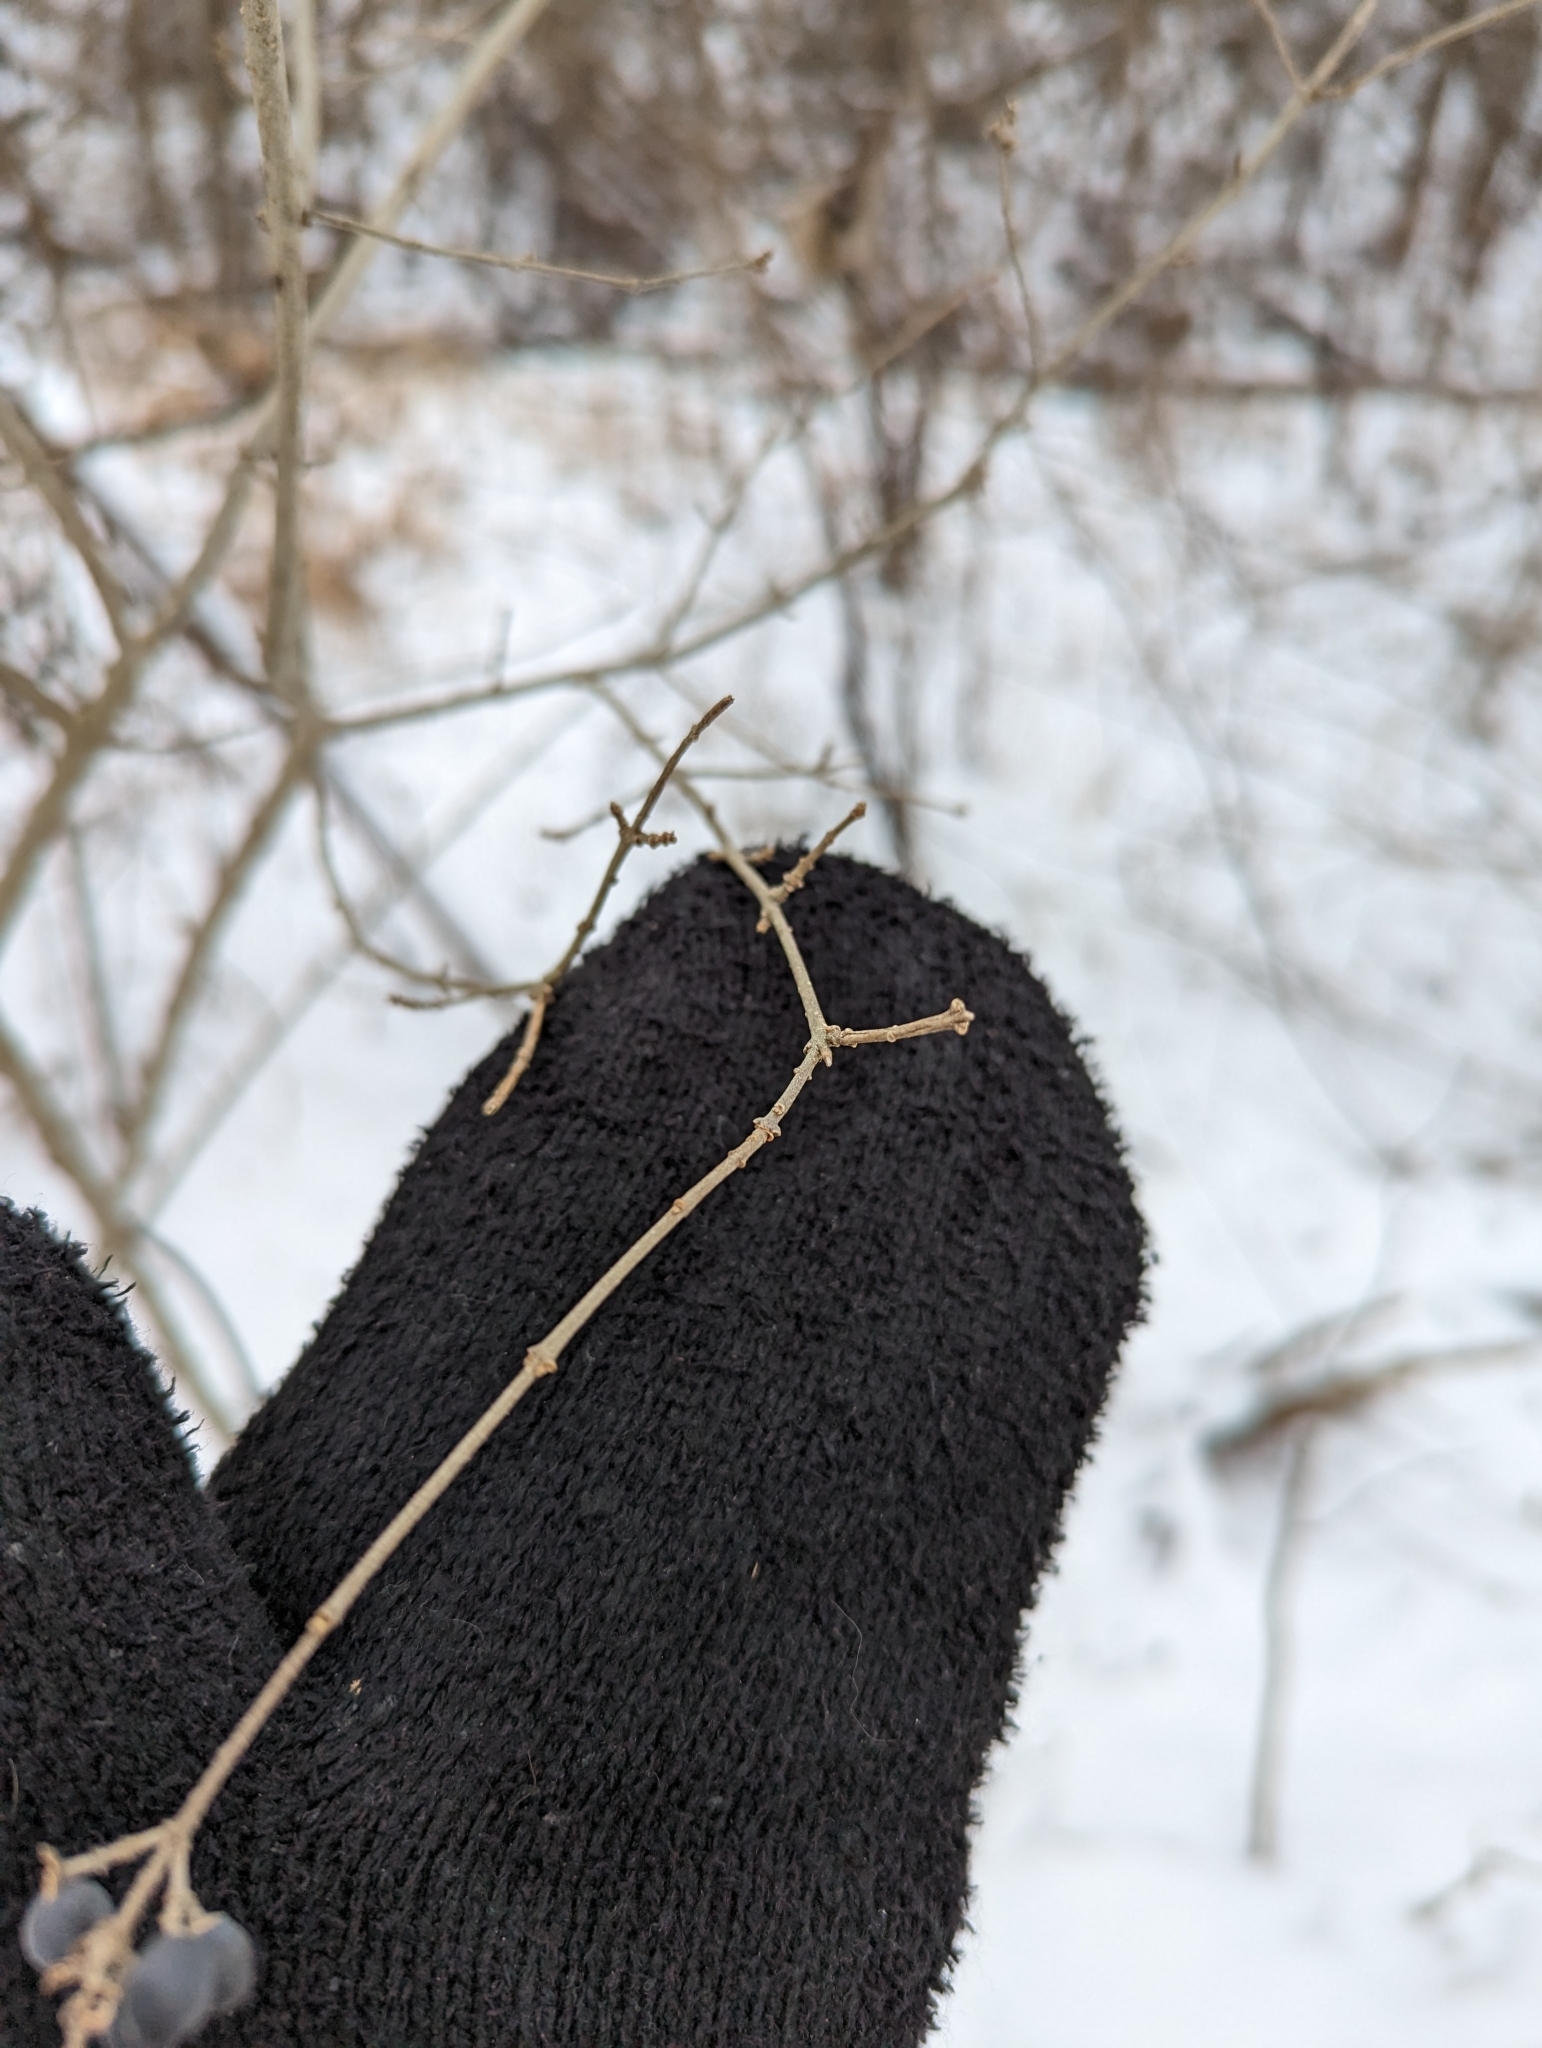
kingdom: Plantae
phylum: Tracheophyta
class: Magnoliopsida
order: Lamiales
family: Oleaceae
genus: Ligustrum
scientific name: Ligustrum obtusifolium
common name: Border privet
